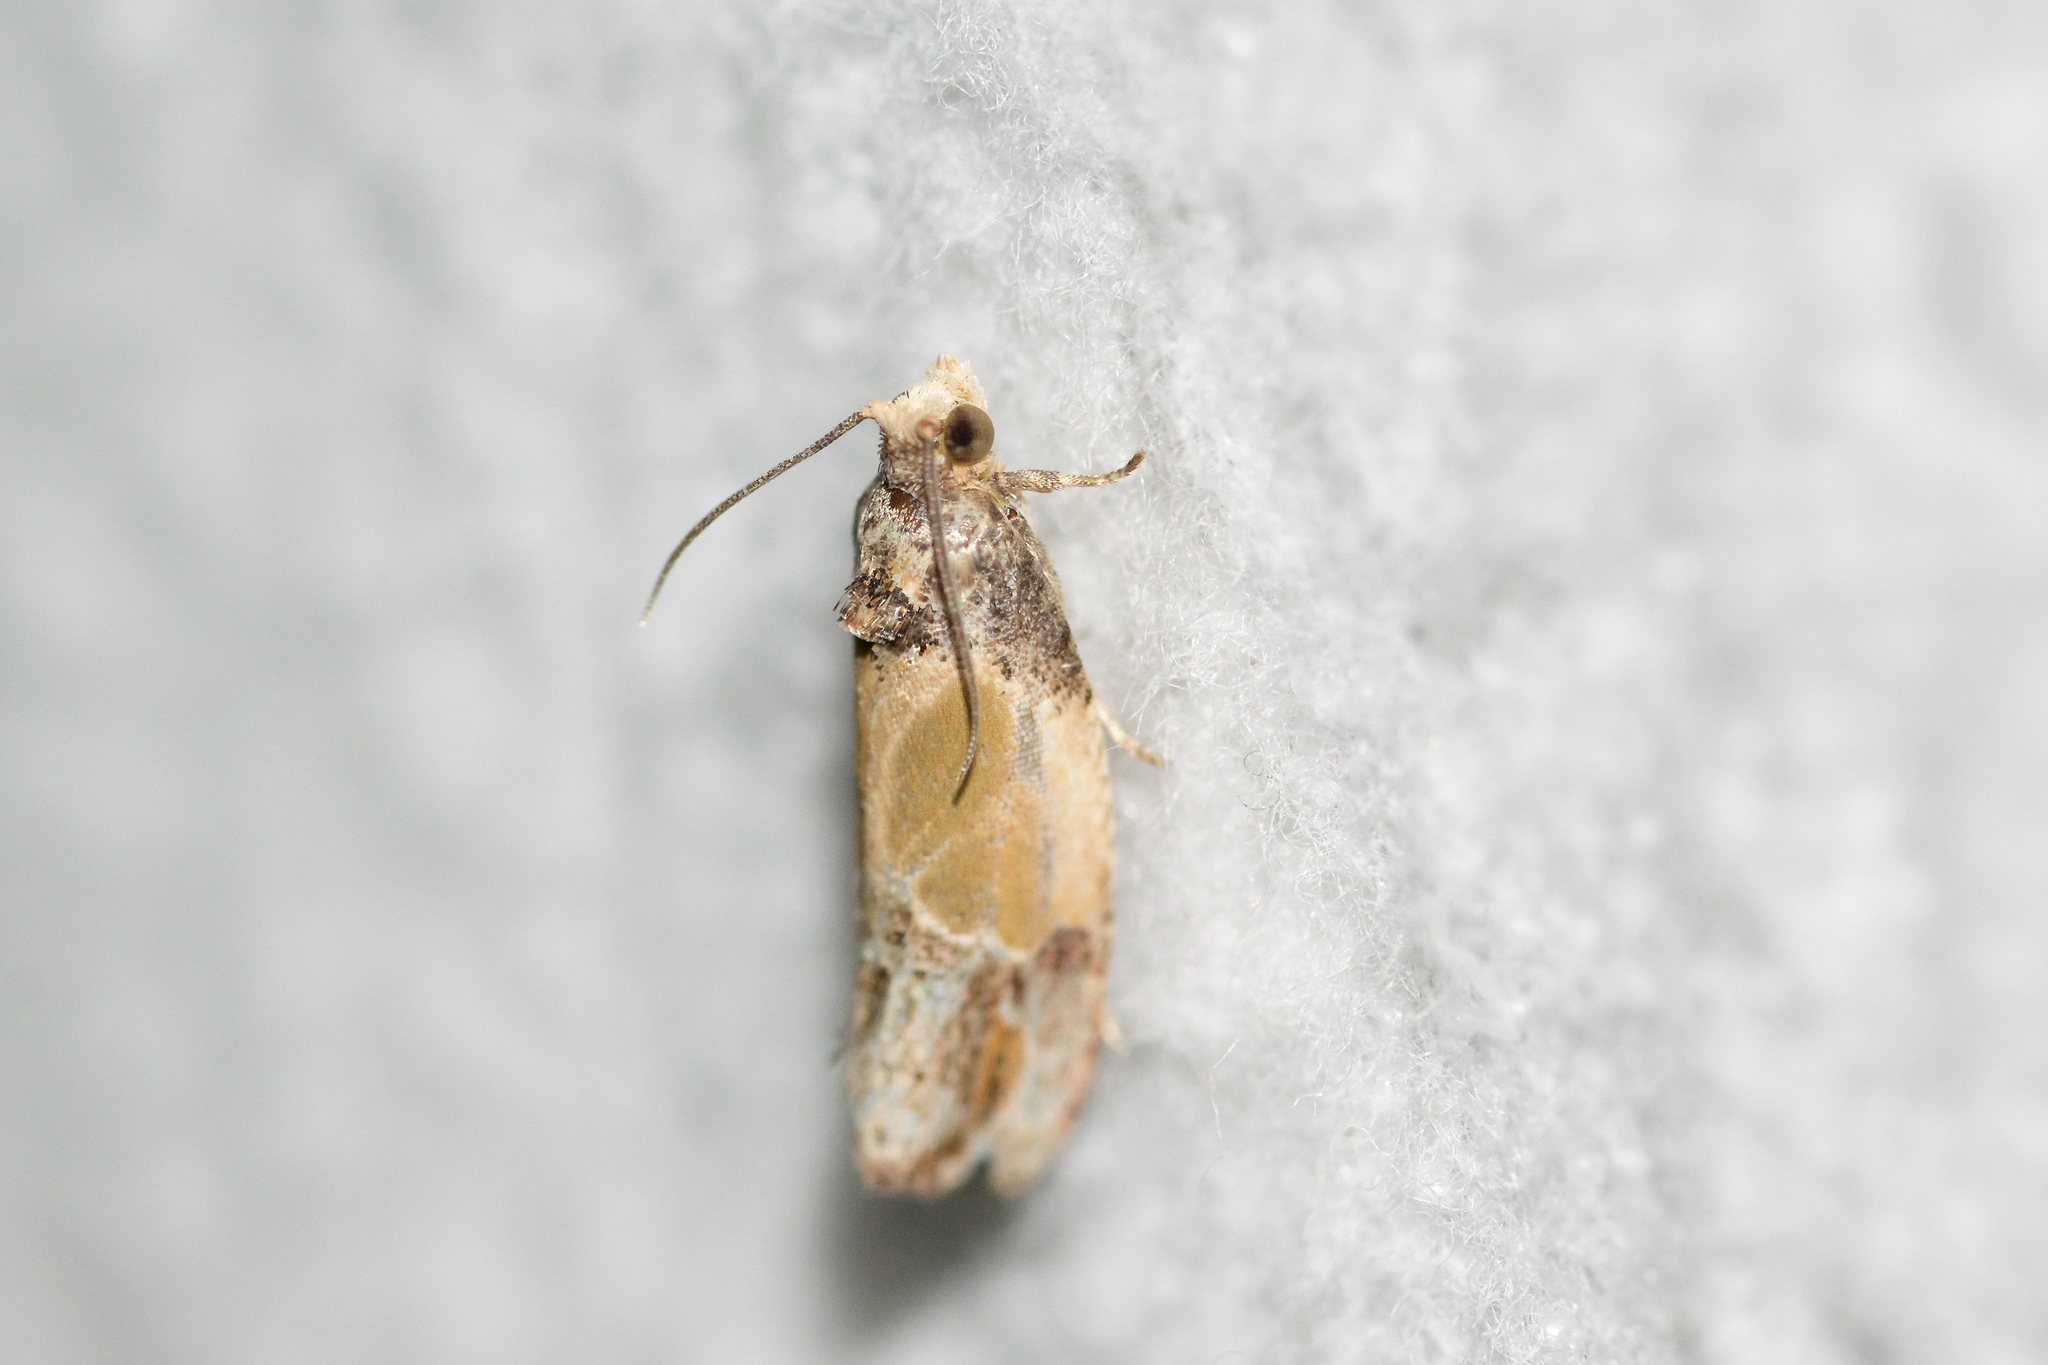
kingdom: Animalia
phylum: Arthropoda
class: Insecta
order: Lepidoptera
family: Tortricidae
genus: Eumarozia
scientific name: Eumarozia malachitana
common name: Sculptured moth
